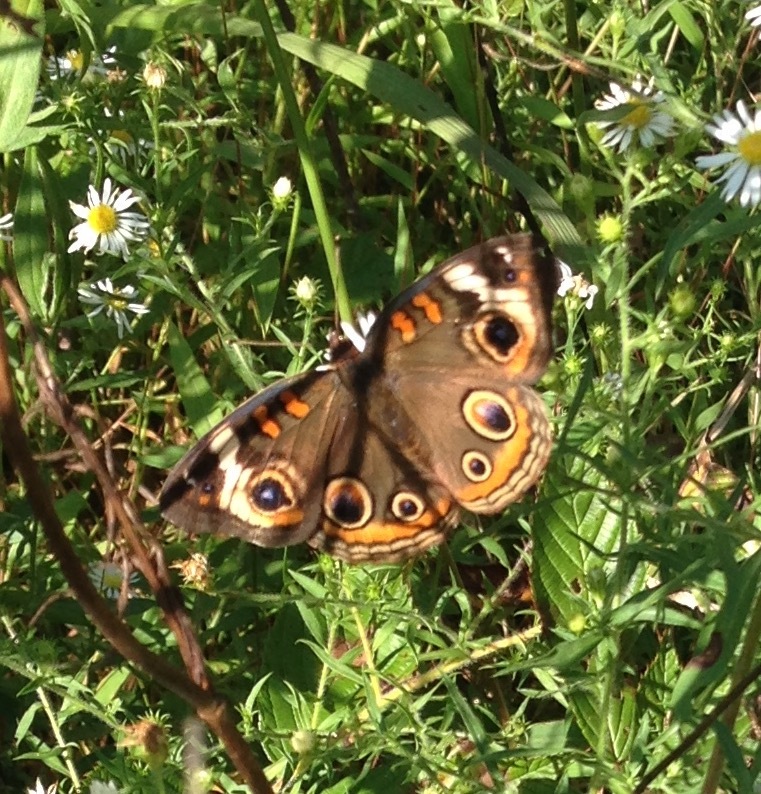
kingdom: Animalia
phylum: Arthropoda
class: Insecta
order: Lepidoptera
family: Nymphalidae
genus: Junonia
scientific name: Junonia coenia
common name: Common buckeye
